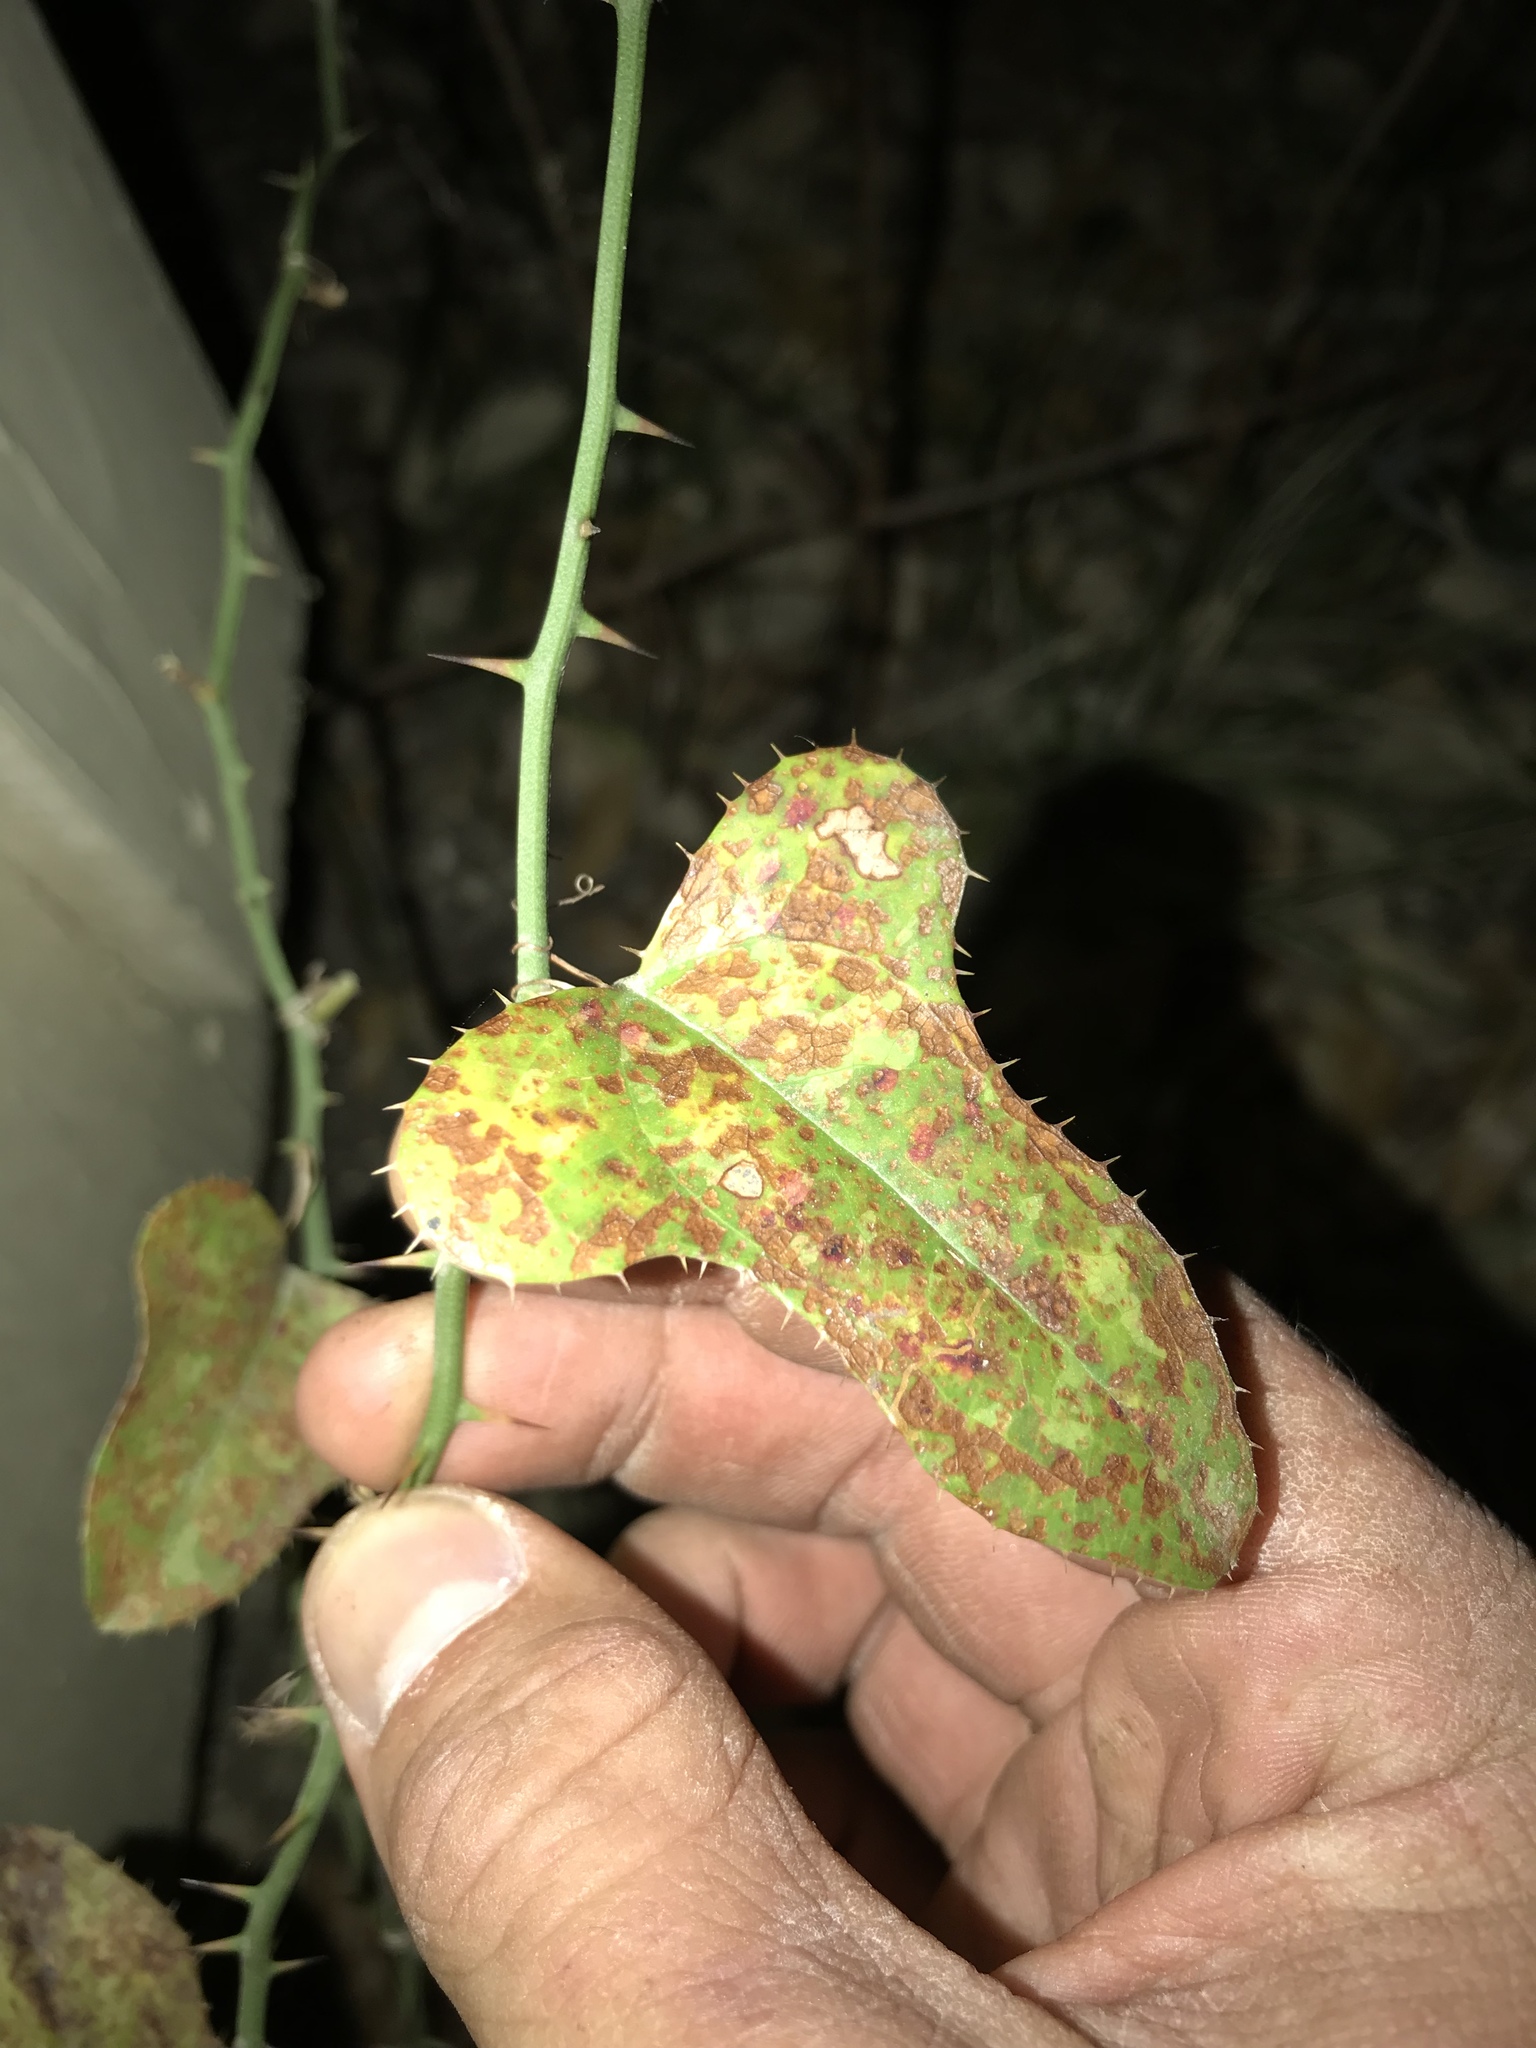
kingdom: Plantae
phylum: Tracheophyta
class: Liliopsida
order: Liliales
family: Smilacaceae
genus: Smilax
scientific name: Smilax bona-nox
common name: Catbrier
